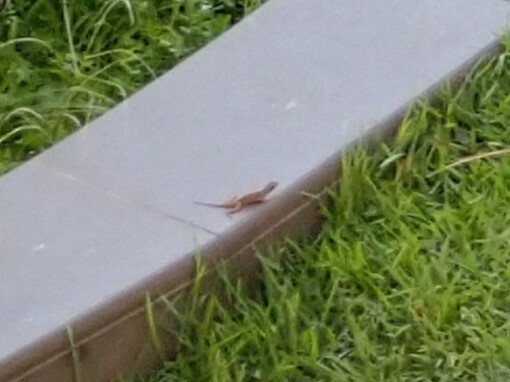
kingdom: Animalia
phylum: Chordata
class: Squamata
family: Dactyloidae
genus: Anolis
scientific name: Anolis sagrei
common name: Brown anole
